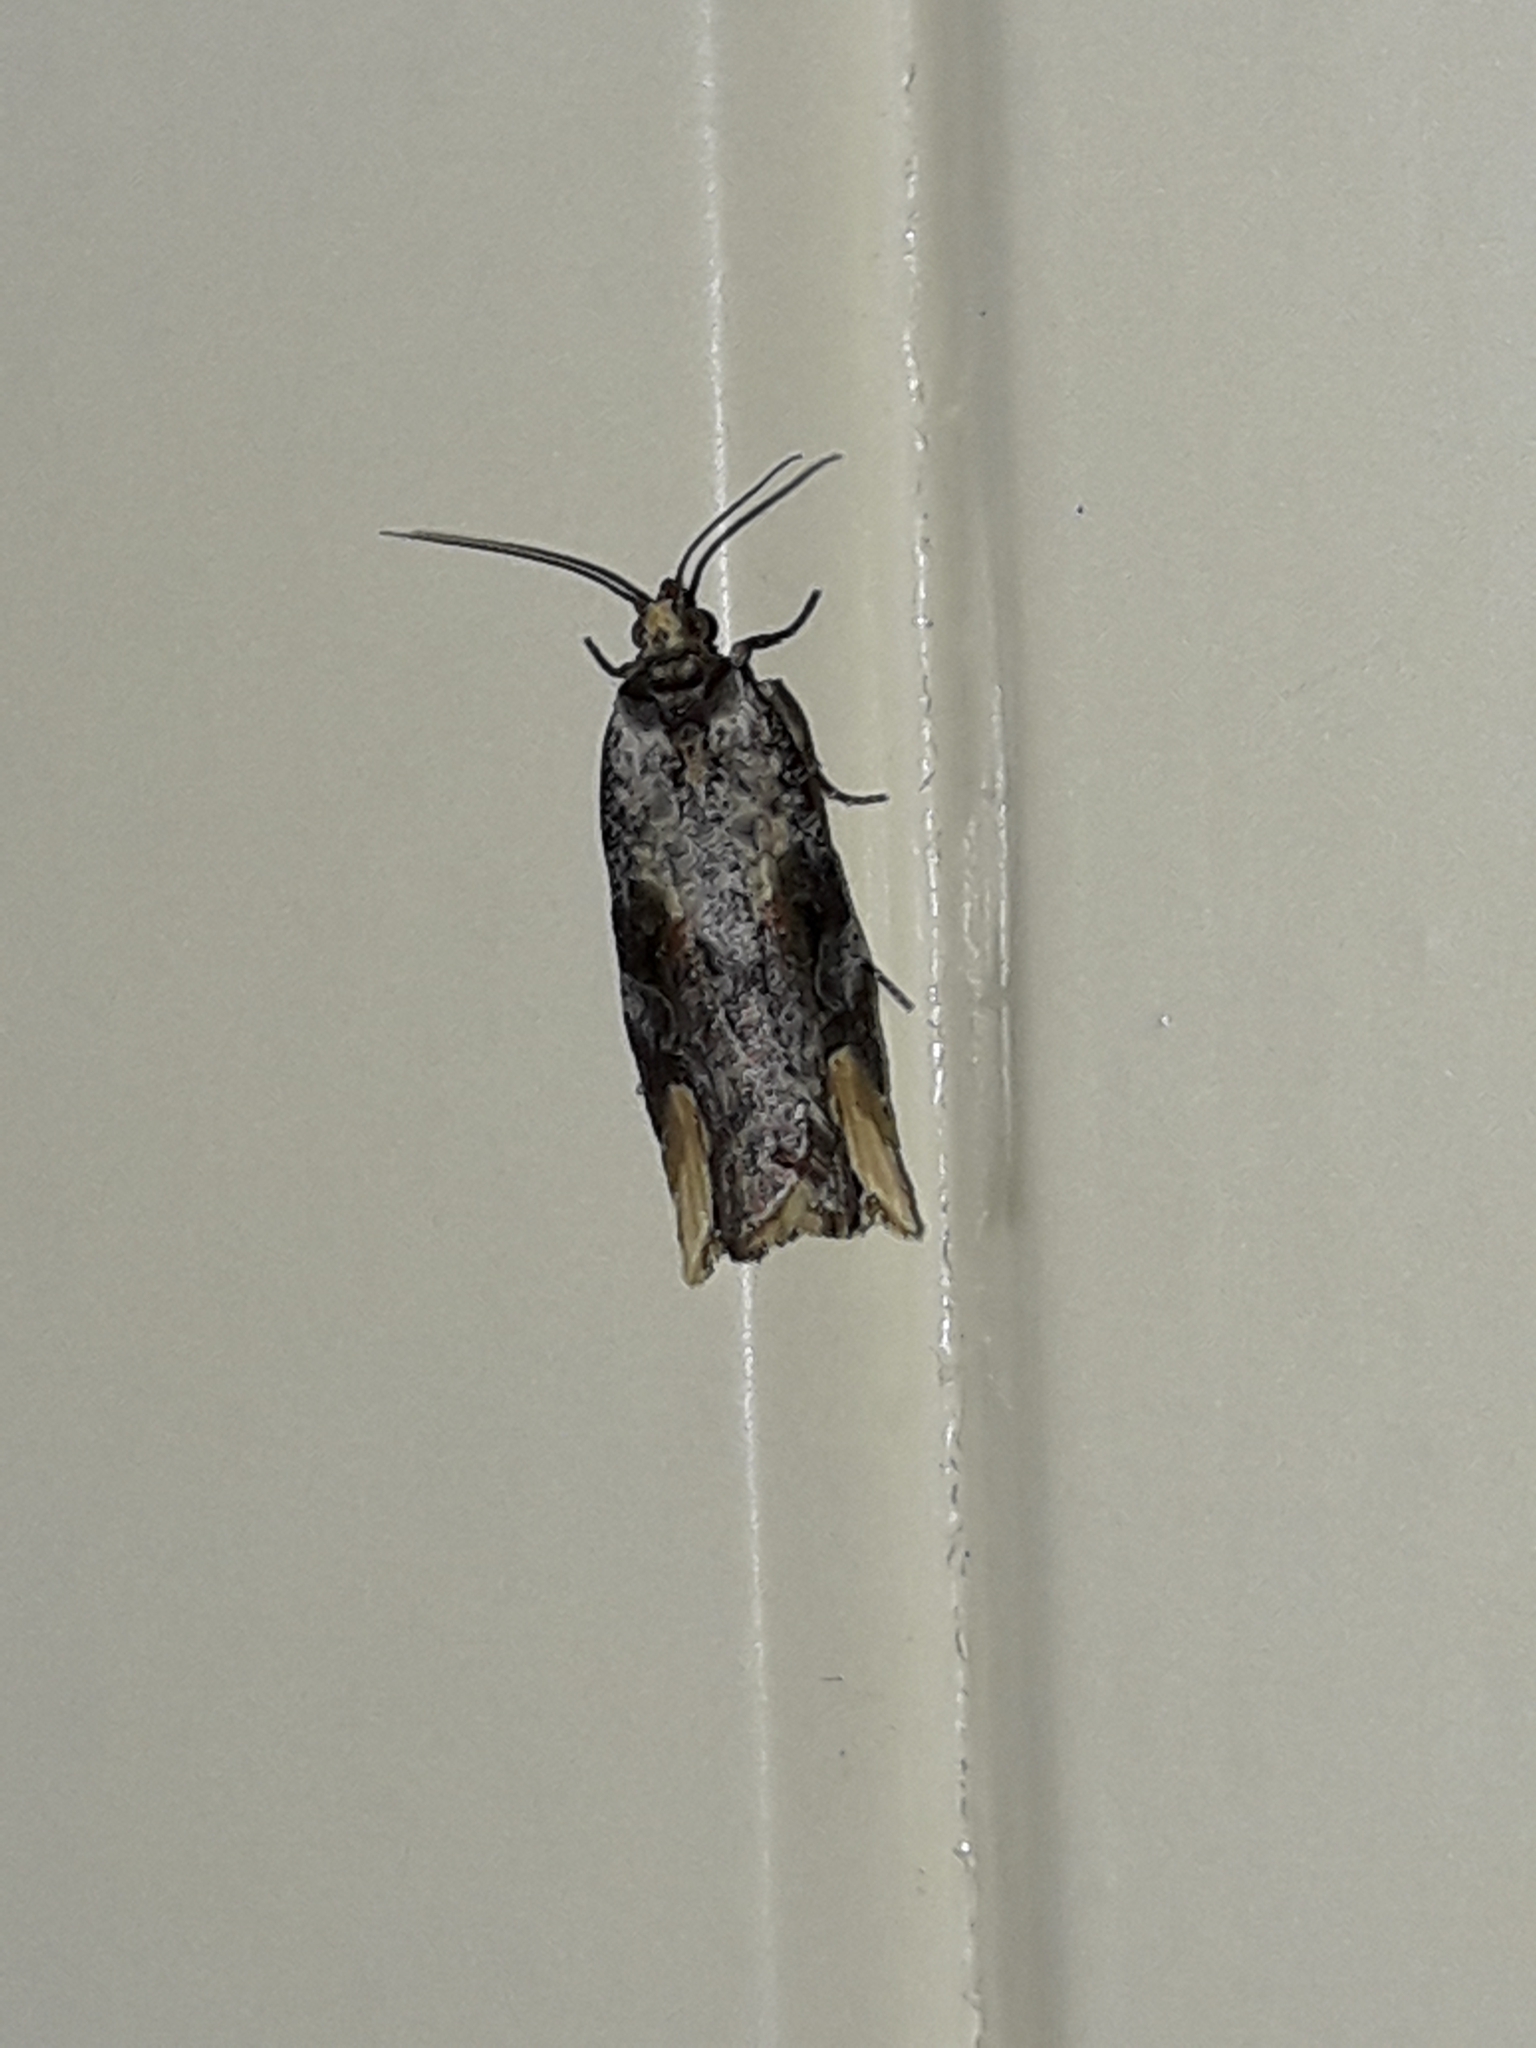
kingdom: Animalia
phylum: Arthropoda
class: Insecta
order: Lepidoptera
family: Tortricidae
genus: Epalxiphora
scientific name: Epalxiphora axenana
